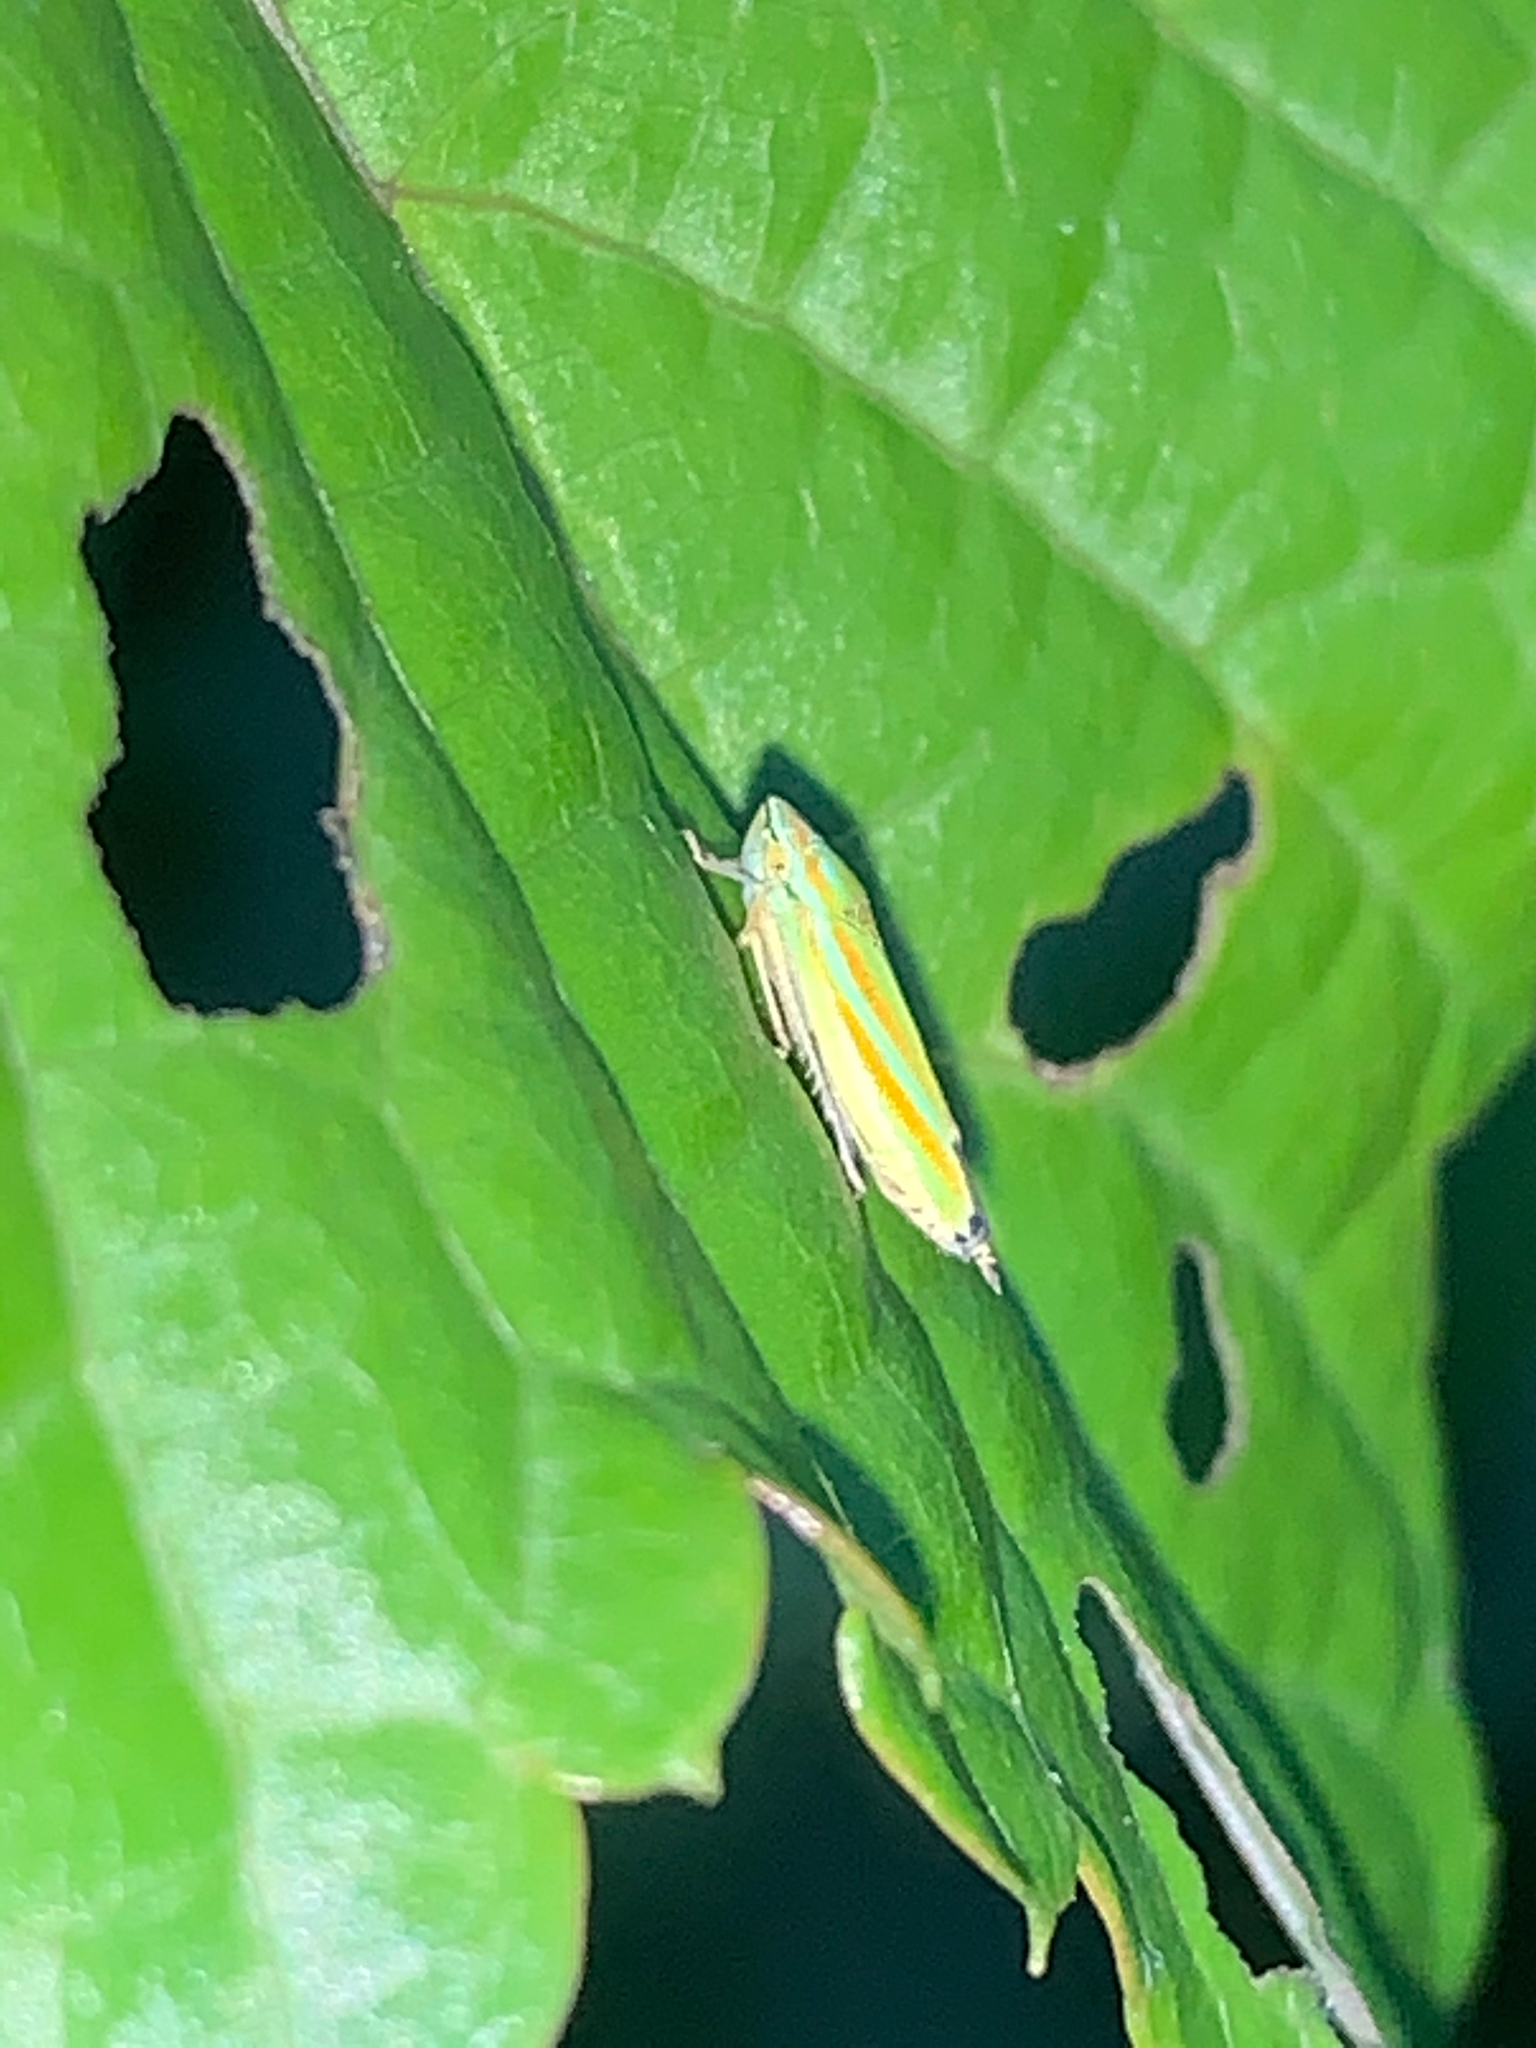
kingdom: Animalia
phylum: Arthropoda
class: Insecta
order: Hemiptera
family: Cicadellidae
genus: Graphocephala
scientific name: Graphocephala versuta
